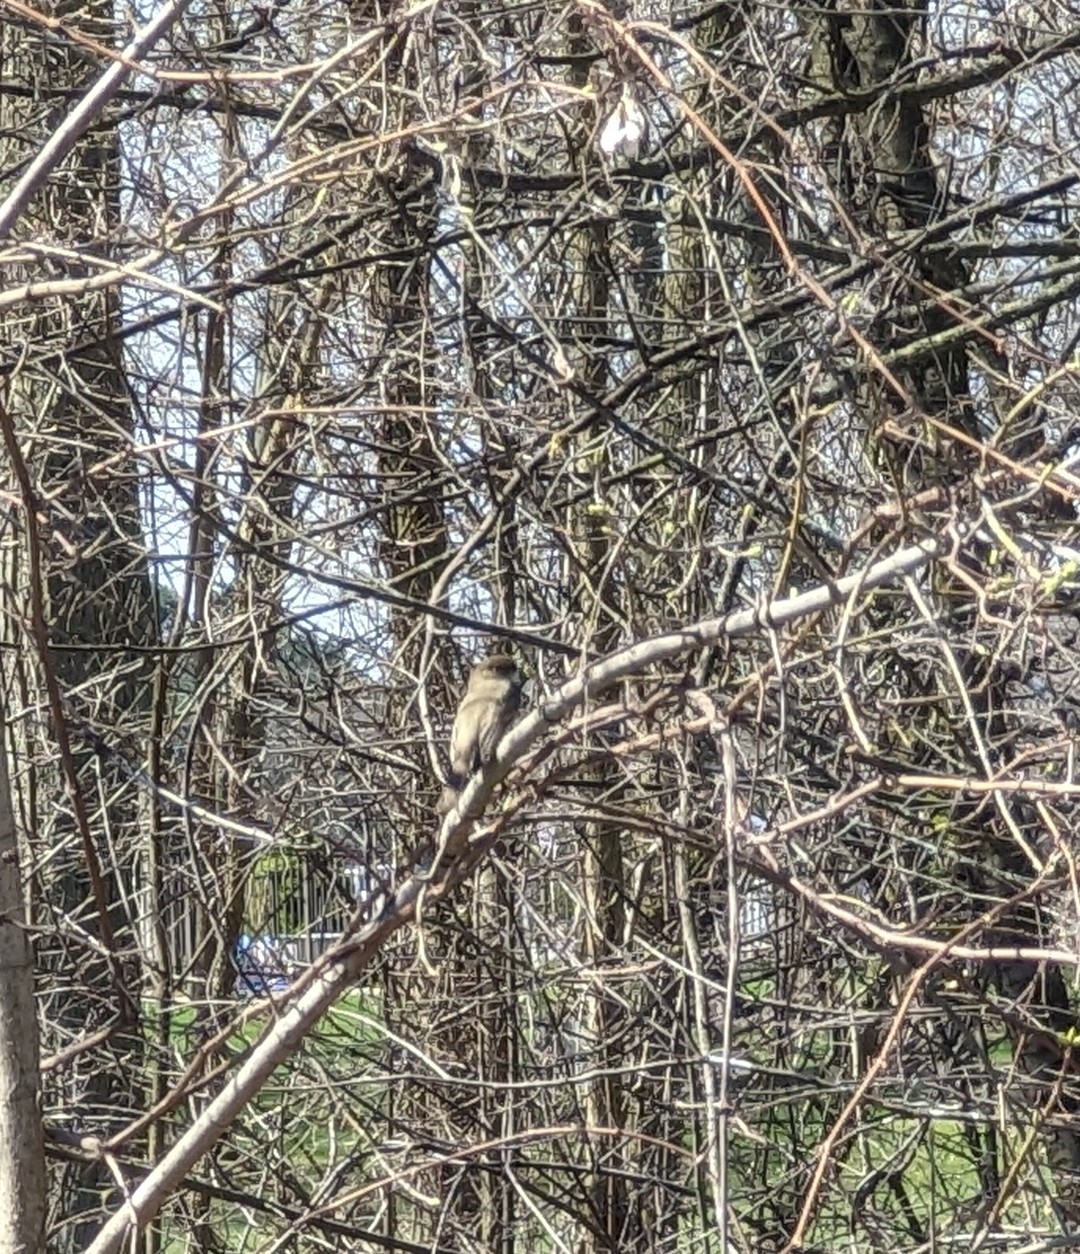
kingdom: Animalia
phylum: Chordata
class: Aves
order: Passeriformes
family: Tyrannidae
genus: Sayornis
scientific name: Sayornis phoebe
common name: Eastern phoebe
